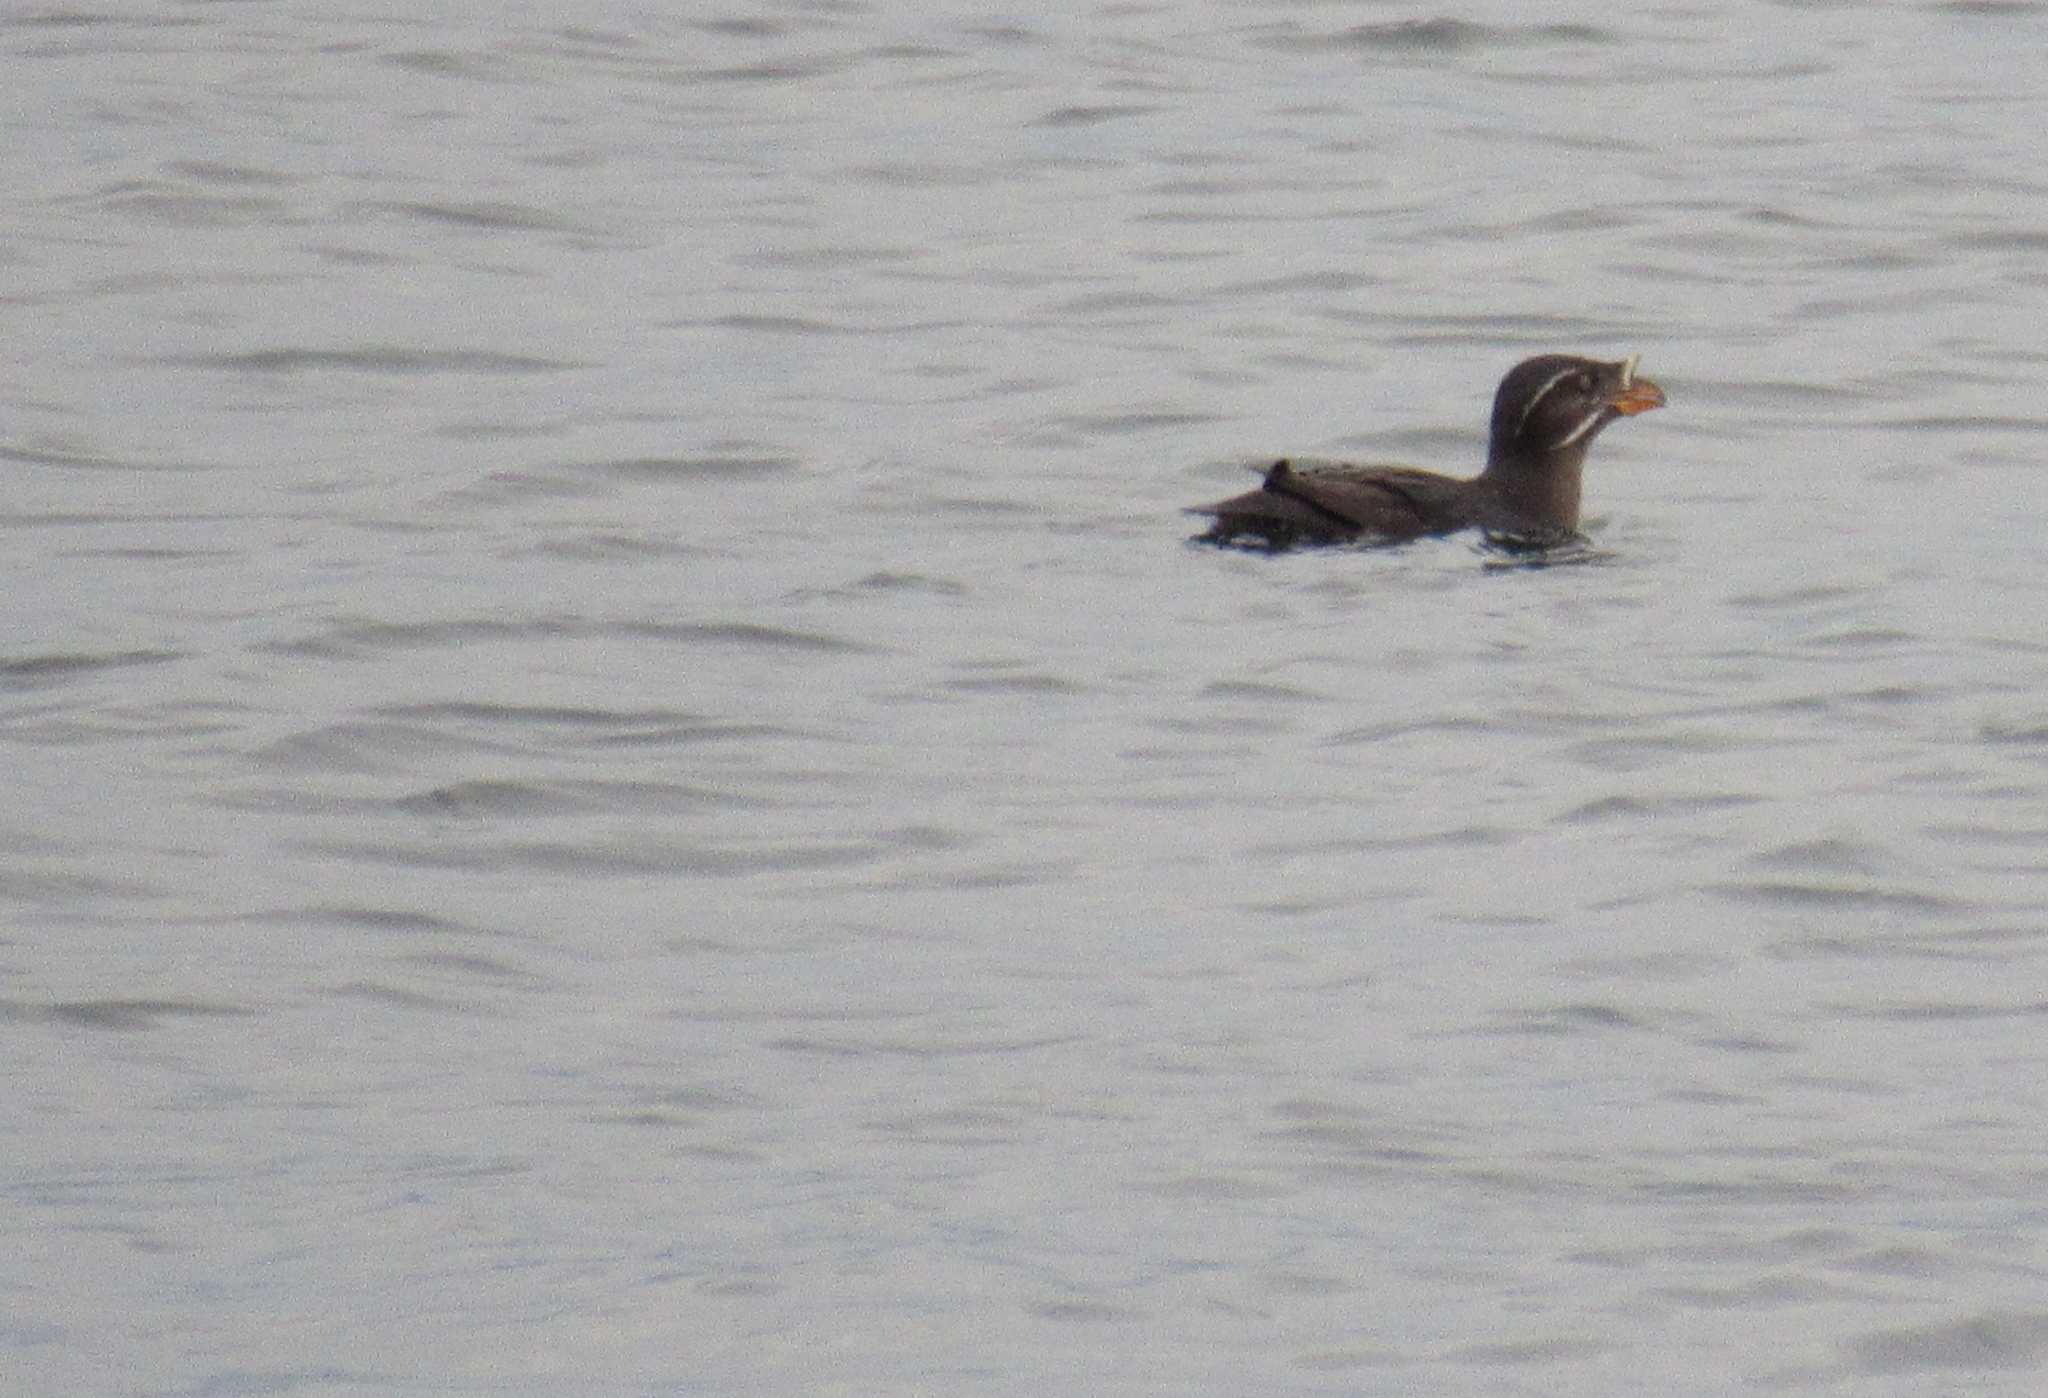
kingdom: Animalia
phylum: Chordata
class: Aves
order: Charadriiformes
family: Alcidae
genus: Cerorhinca
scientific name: Cerorhinca monocerata
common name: Rhinoceros auklet
